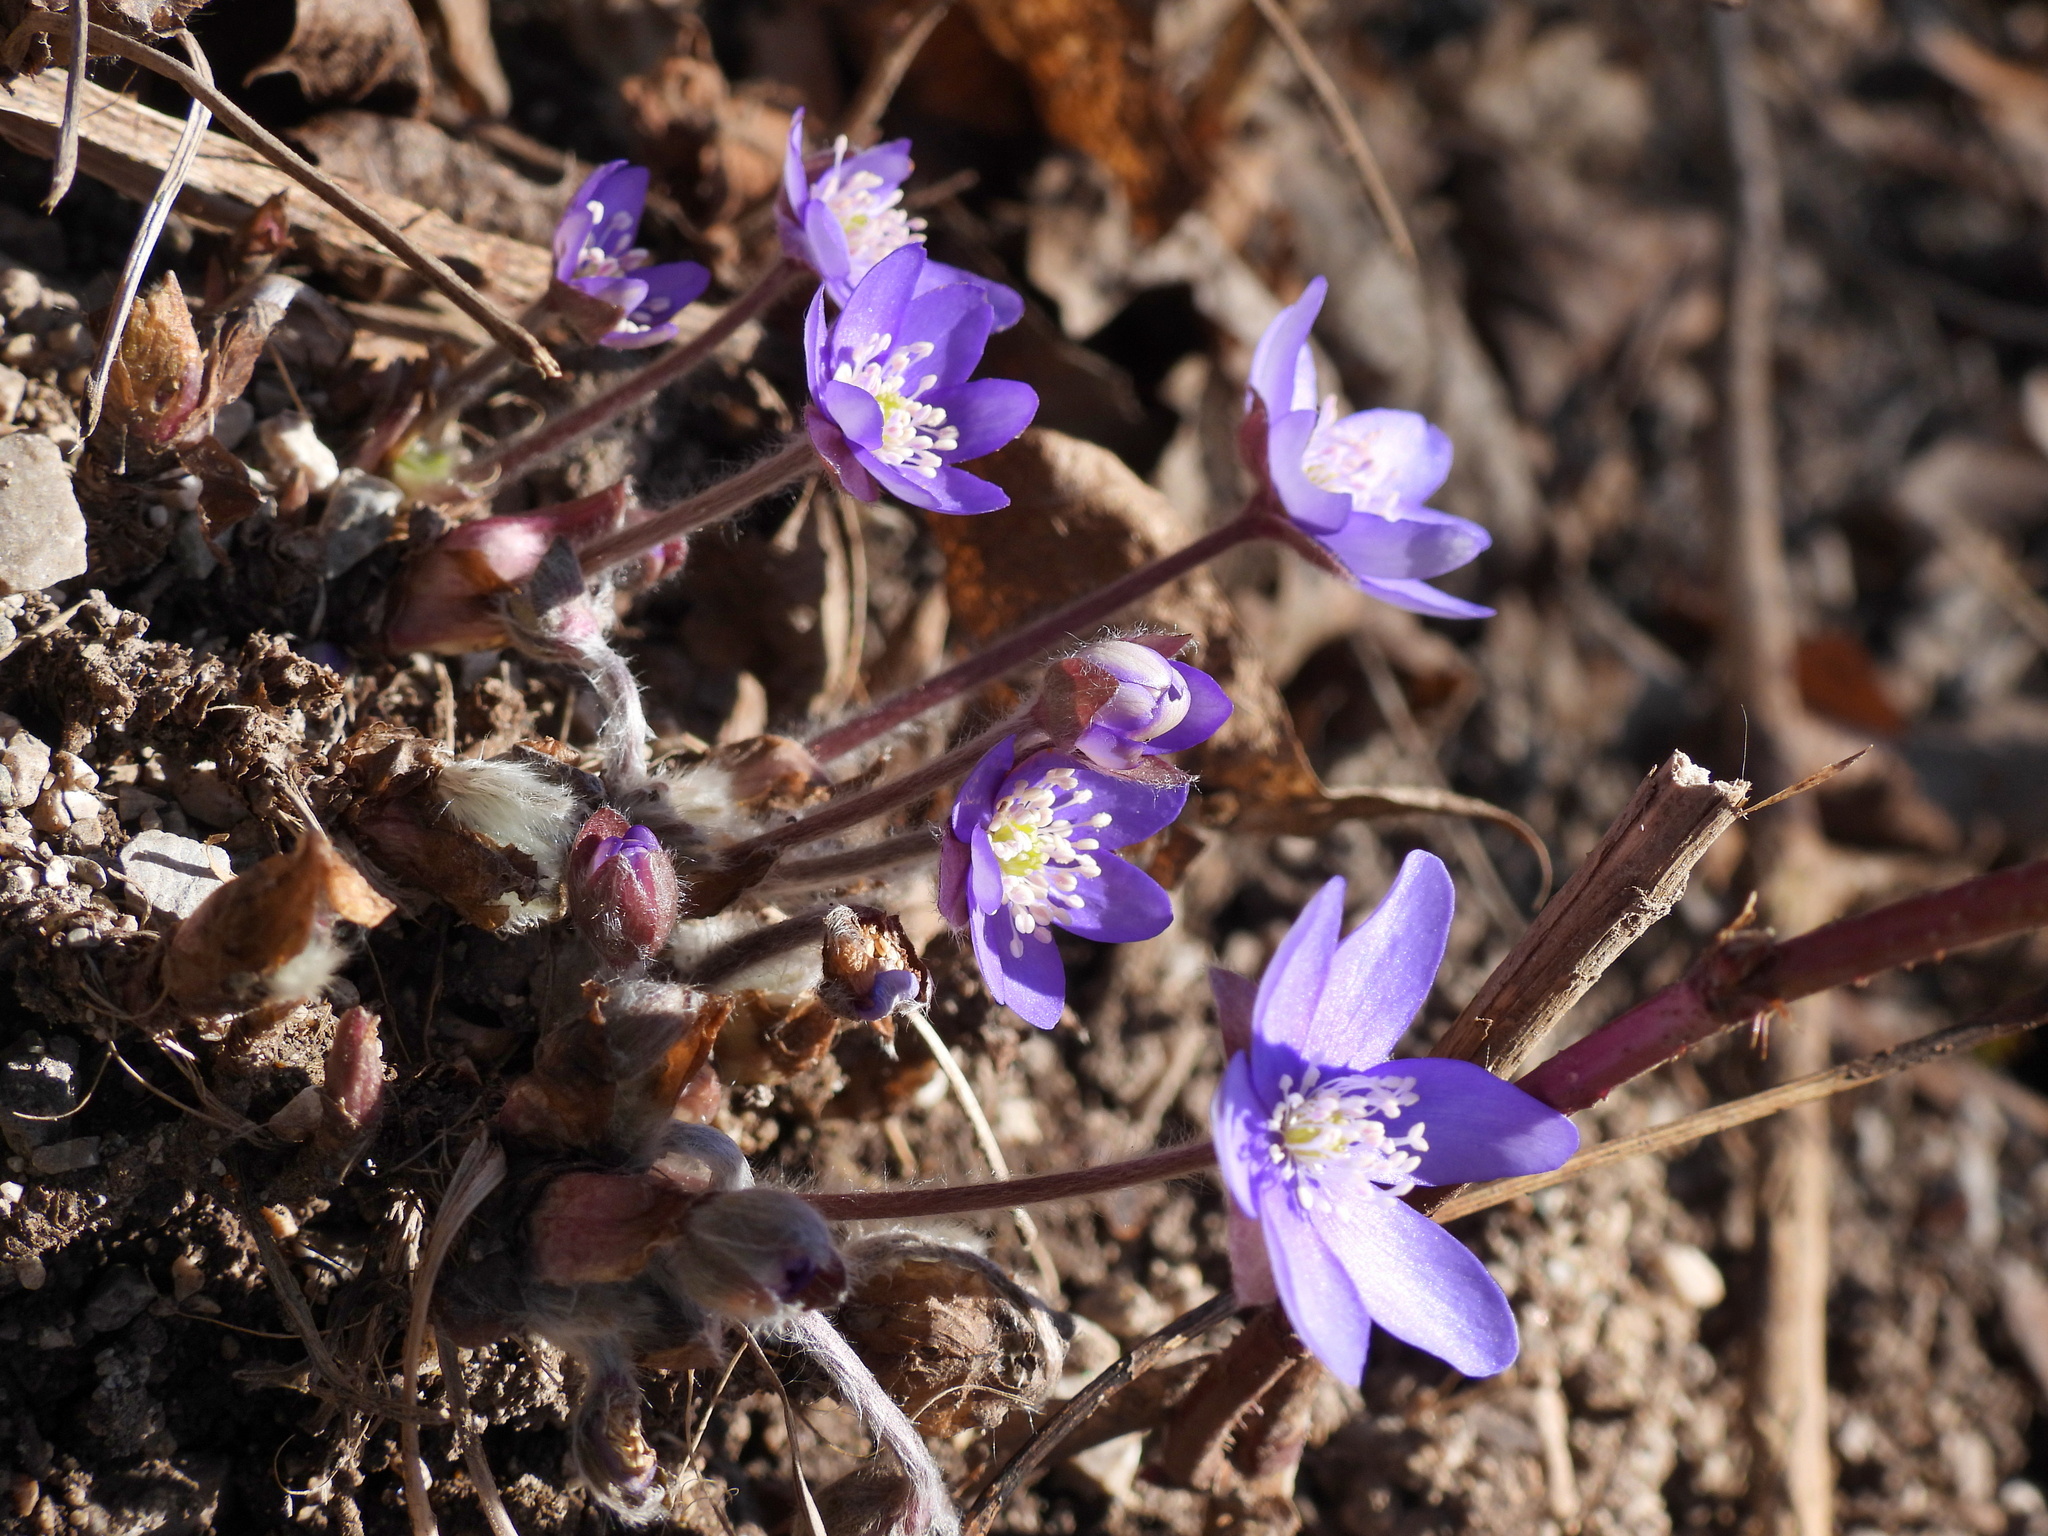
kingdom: Plantae
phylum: Tracheophyta
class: Magnoliopsida
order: Ranunculales
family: Ranunculaceae
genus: Hepatica
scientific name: Hepatica nobilis
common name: Liverleaf
